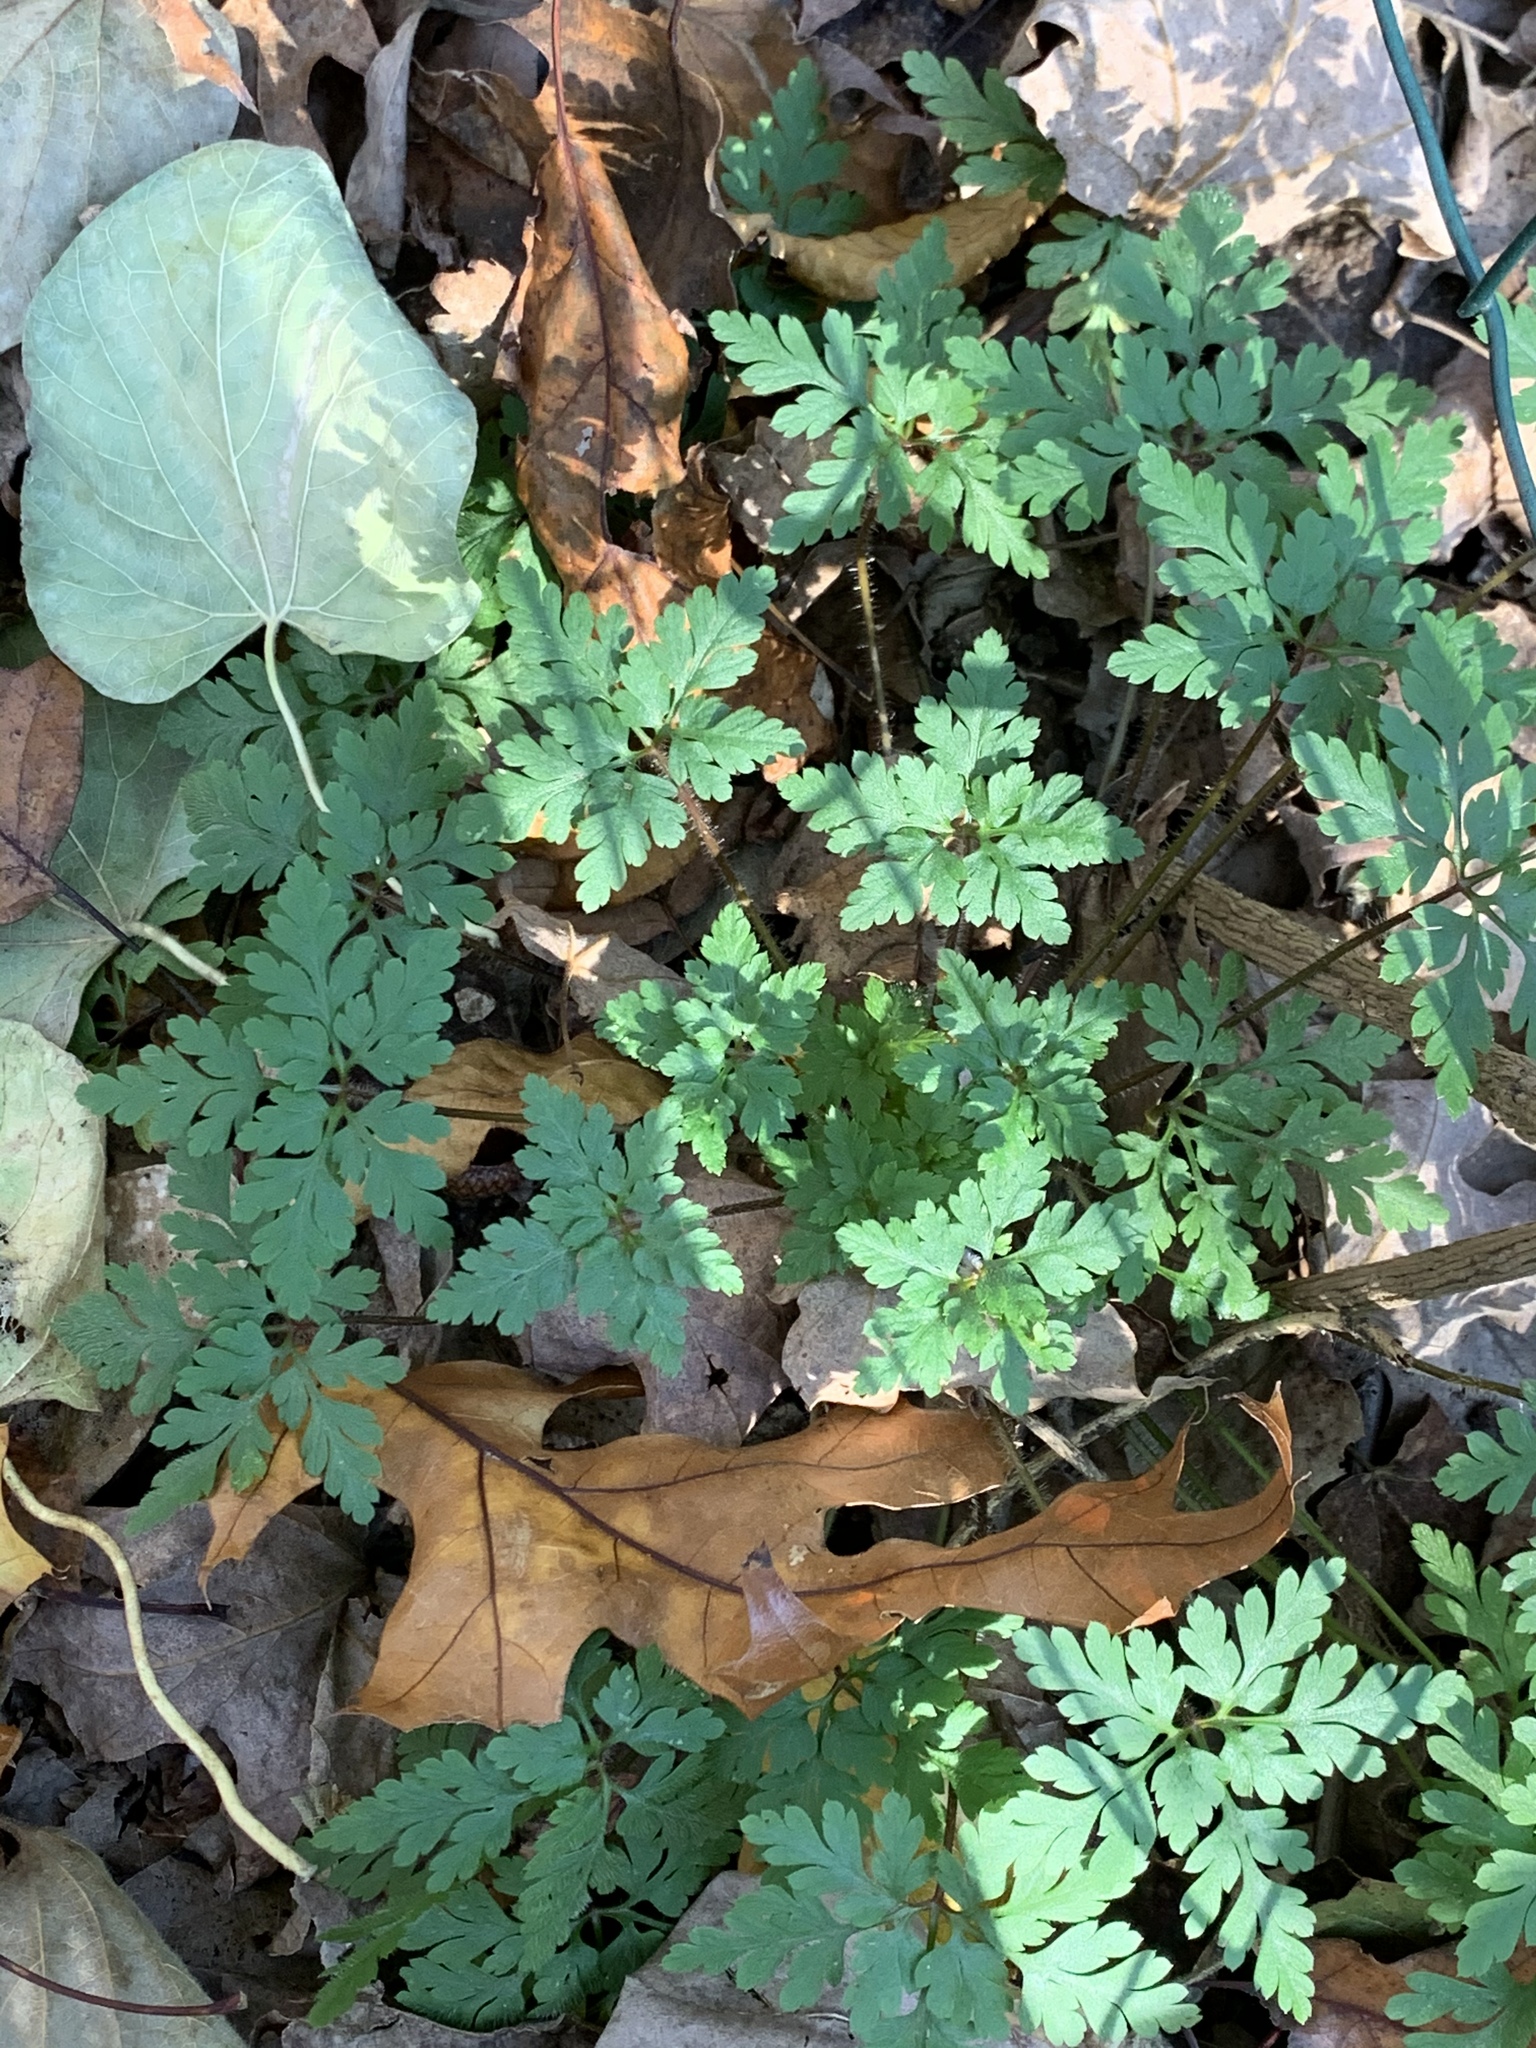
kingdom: Plantae
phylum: Tracheophyta
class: Magnoliopsida
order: Geraniales
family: Geraniaceae
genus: Geranium
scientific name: Geranium robertianum
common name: Herb-robert
